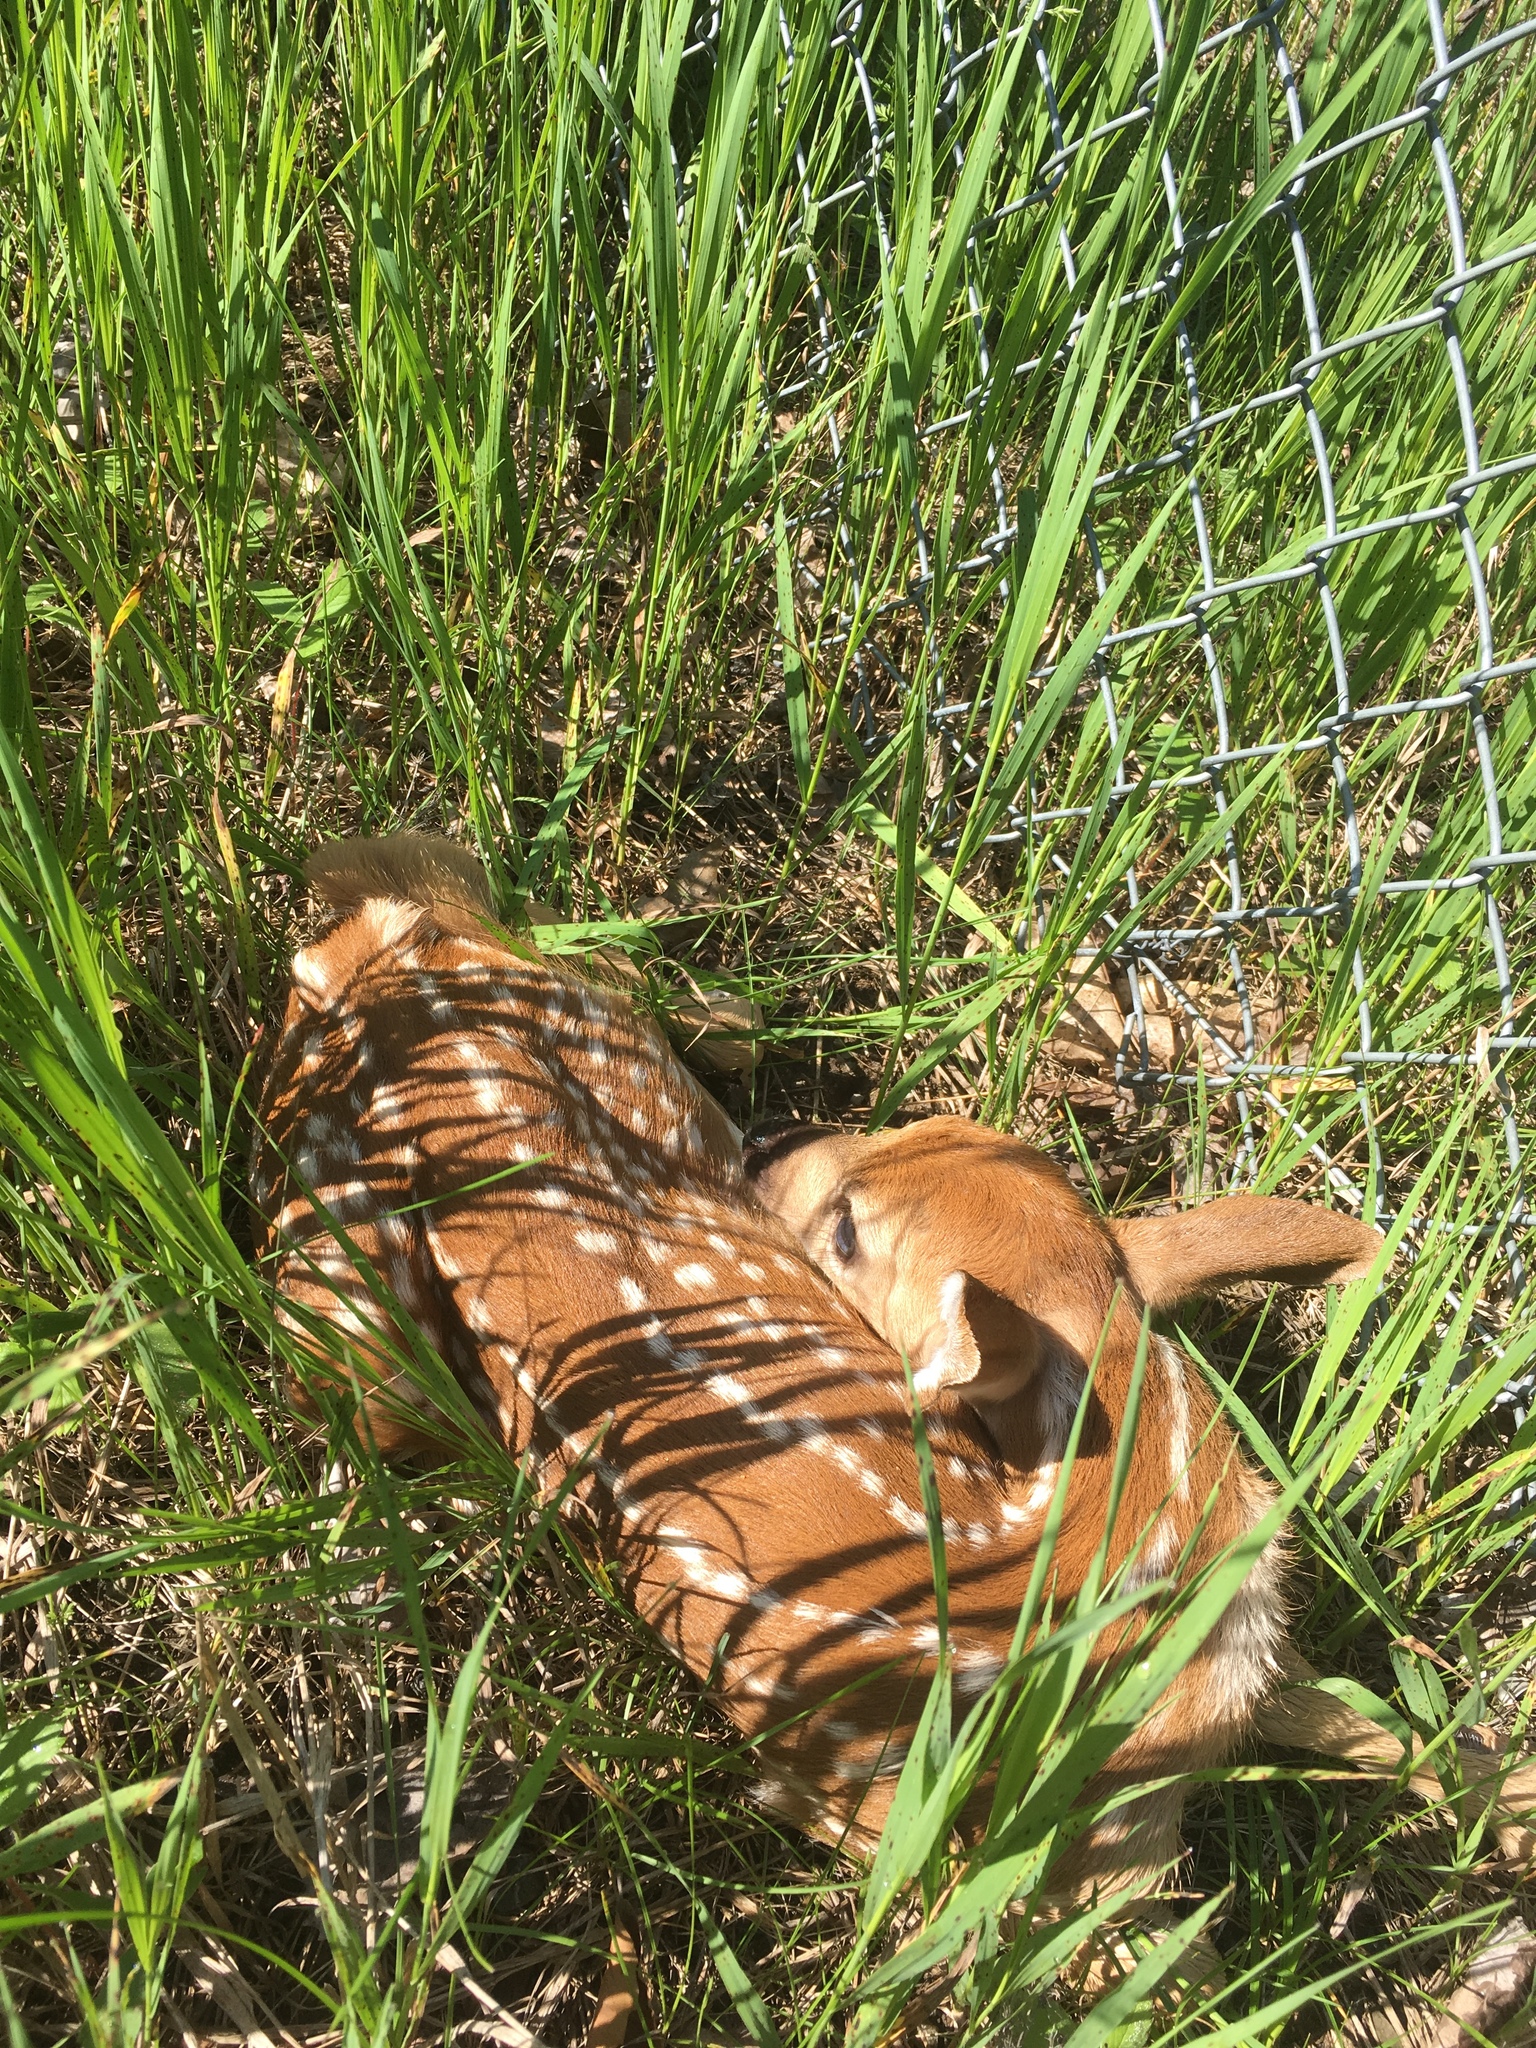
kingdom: Animalia
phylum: Chordata
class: Mammalia
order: Artiodactyla
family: Cervidae
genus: Odocoileus
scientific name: Odocoileus virginianus
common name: White-tailed deer
